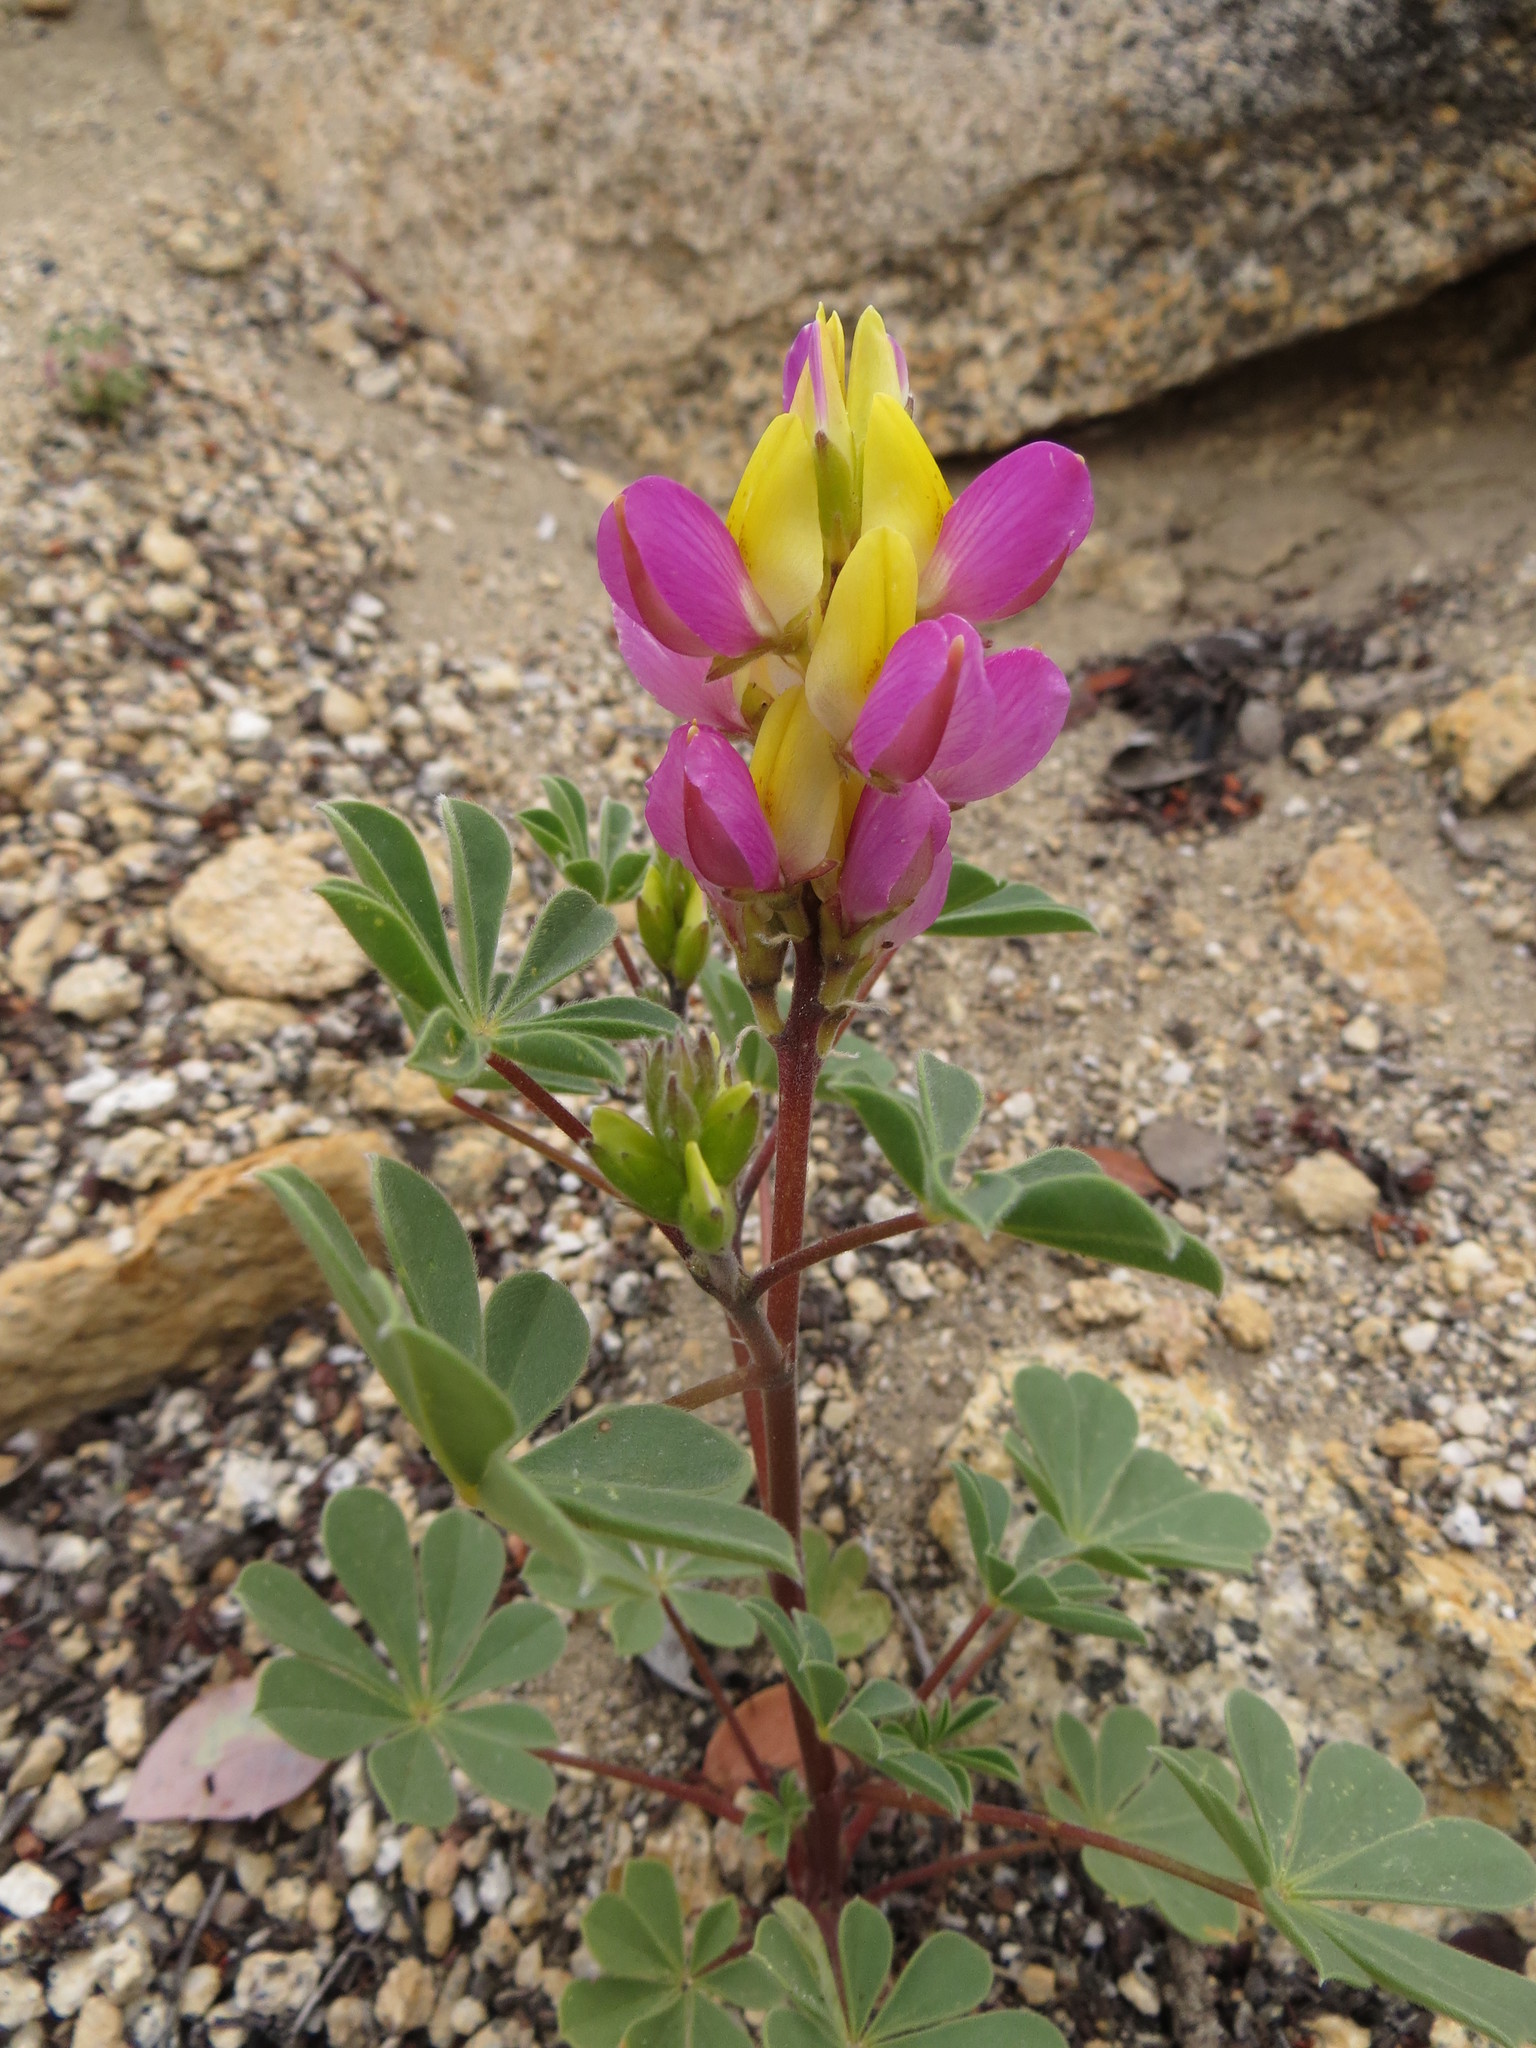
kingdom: Plantae
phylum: Tracheophyta
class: Magnoliopsida
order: Fabales
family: Fabaceae
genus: Lupinus
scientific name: Lupinus stiversii
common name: Harlequin lupine
